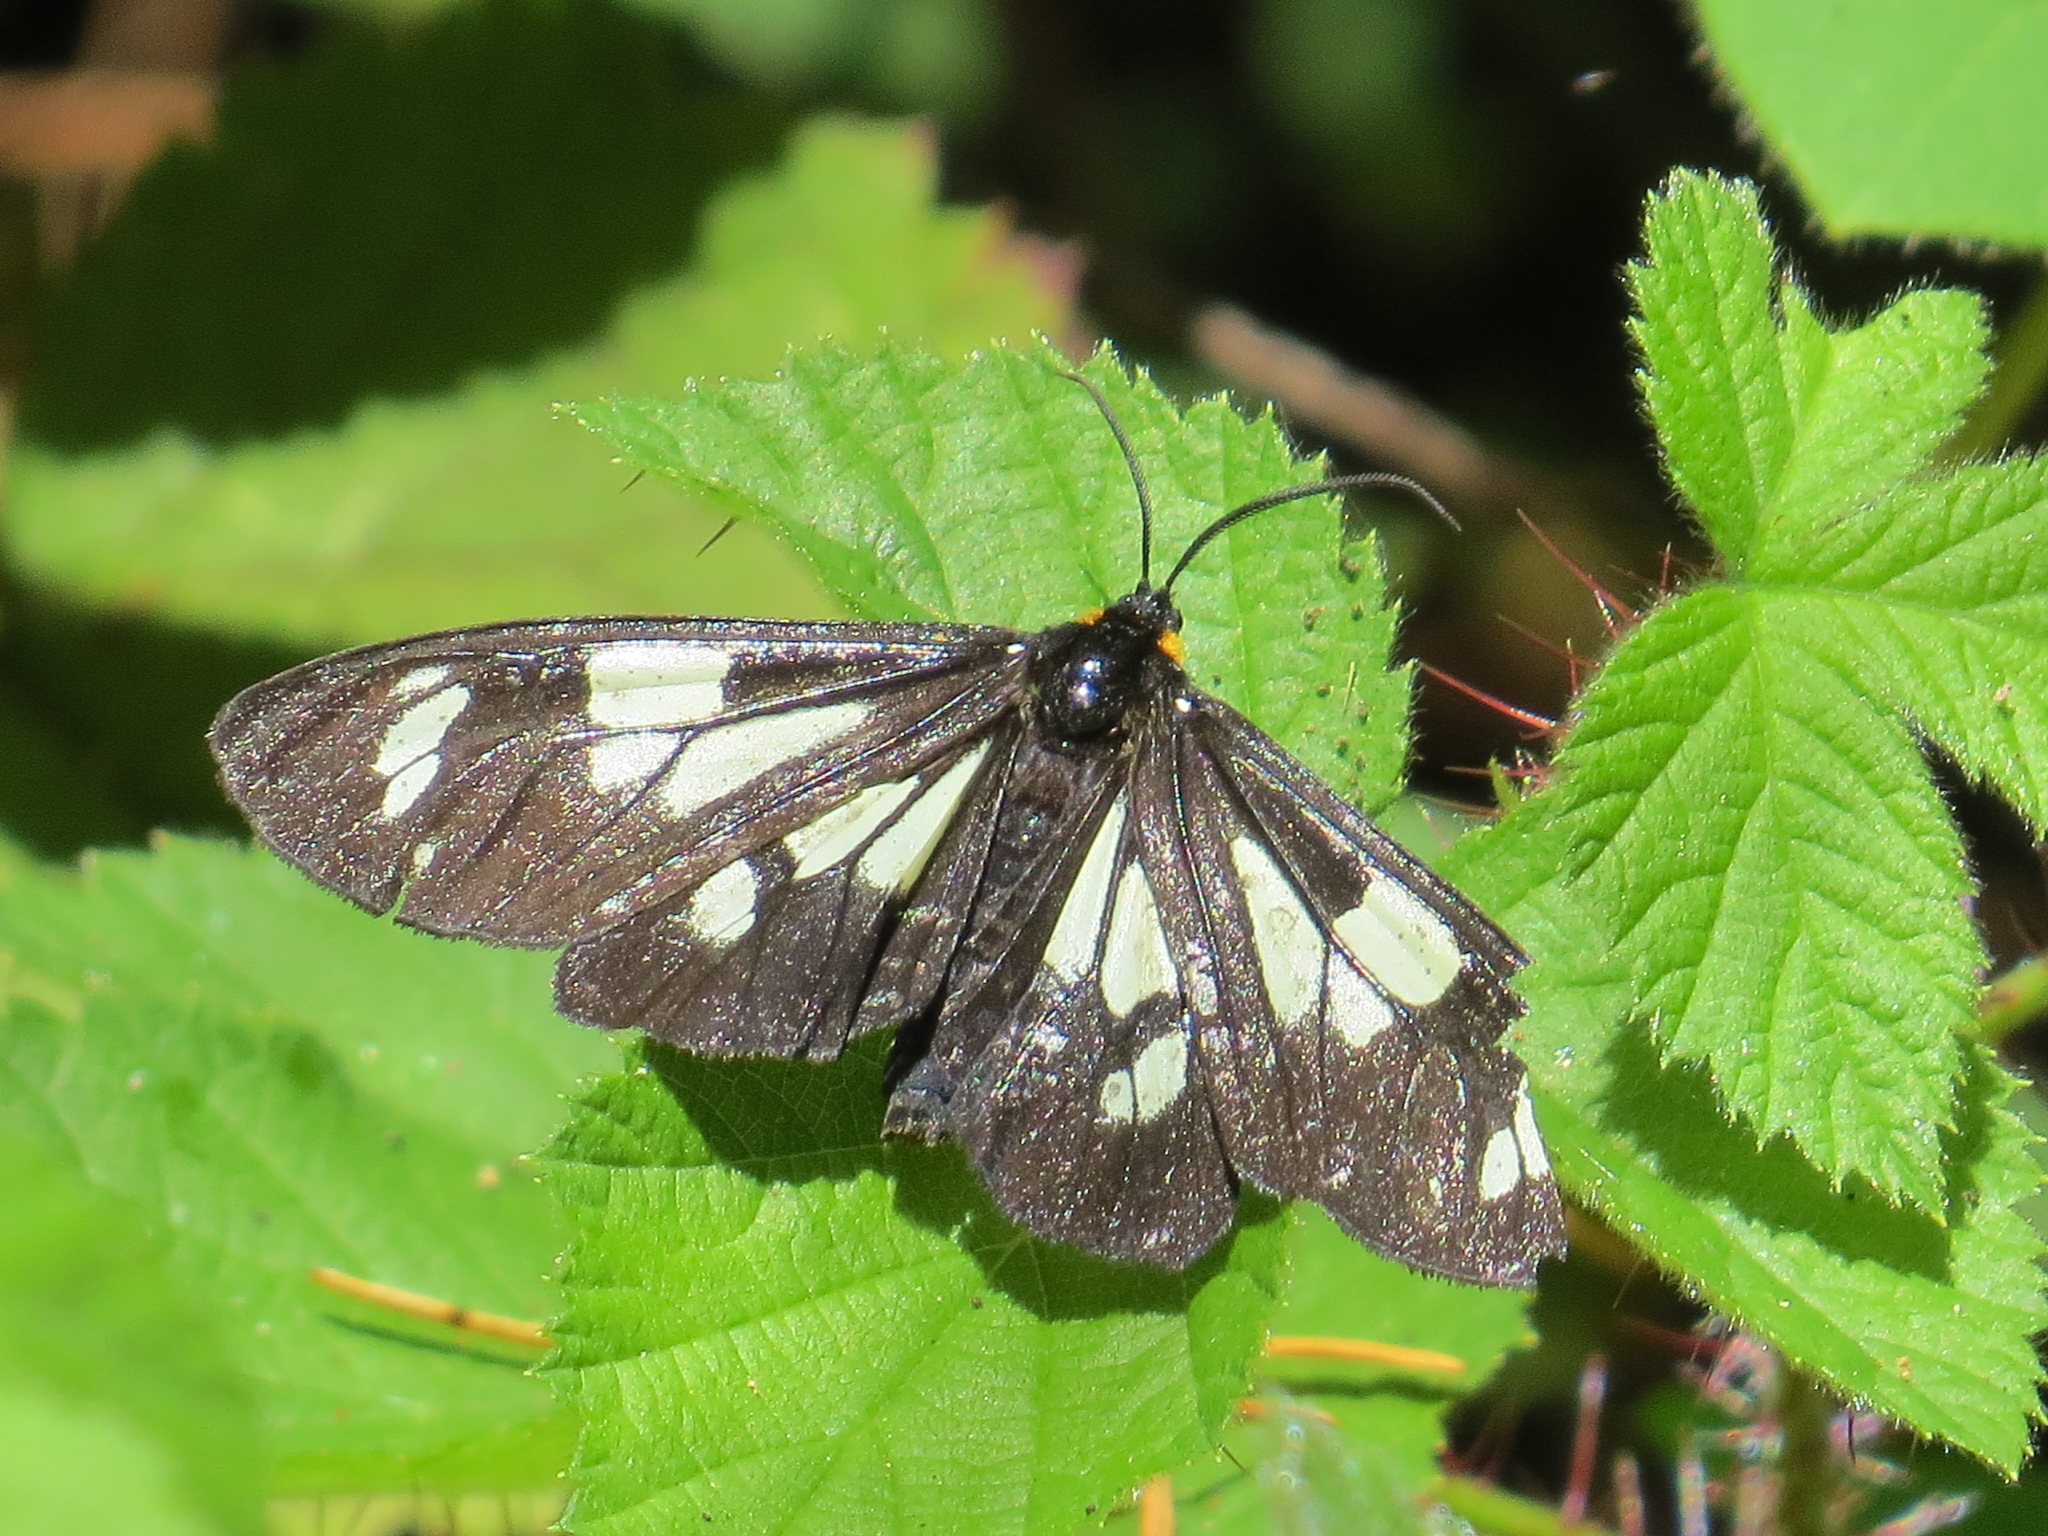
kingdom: Animalia
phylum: Arthropoda
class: Insecta
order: Lepidoptera
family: Erebidae
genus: Gnophaela
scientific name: Gnophaela latipennis
